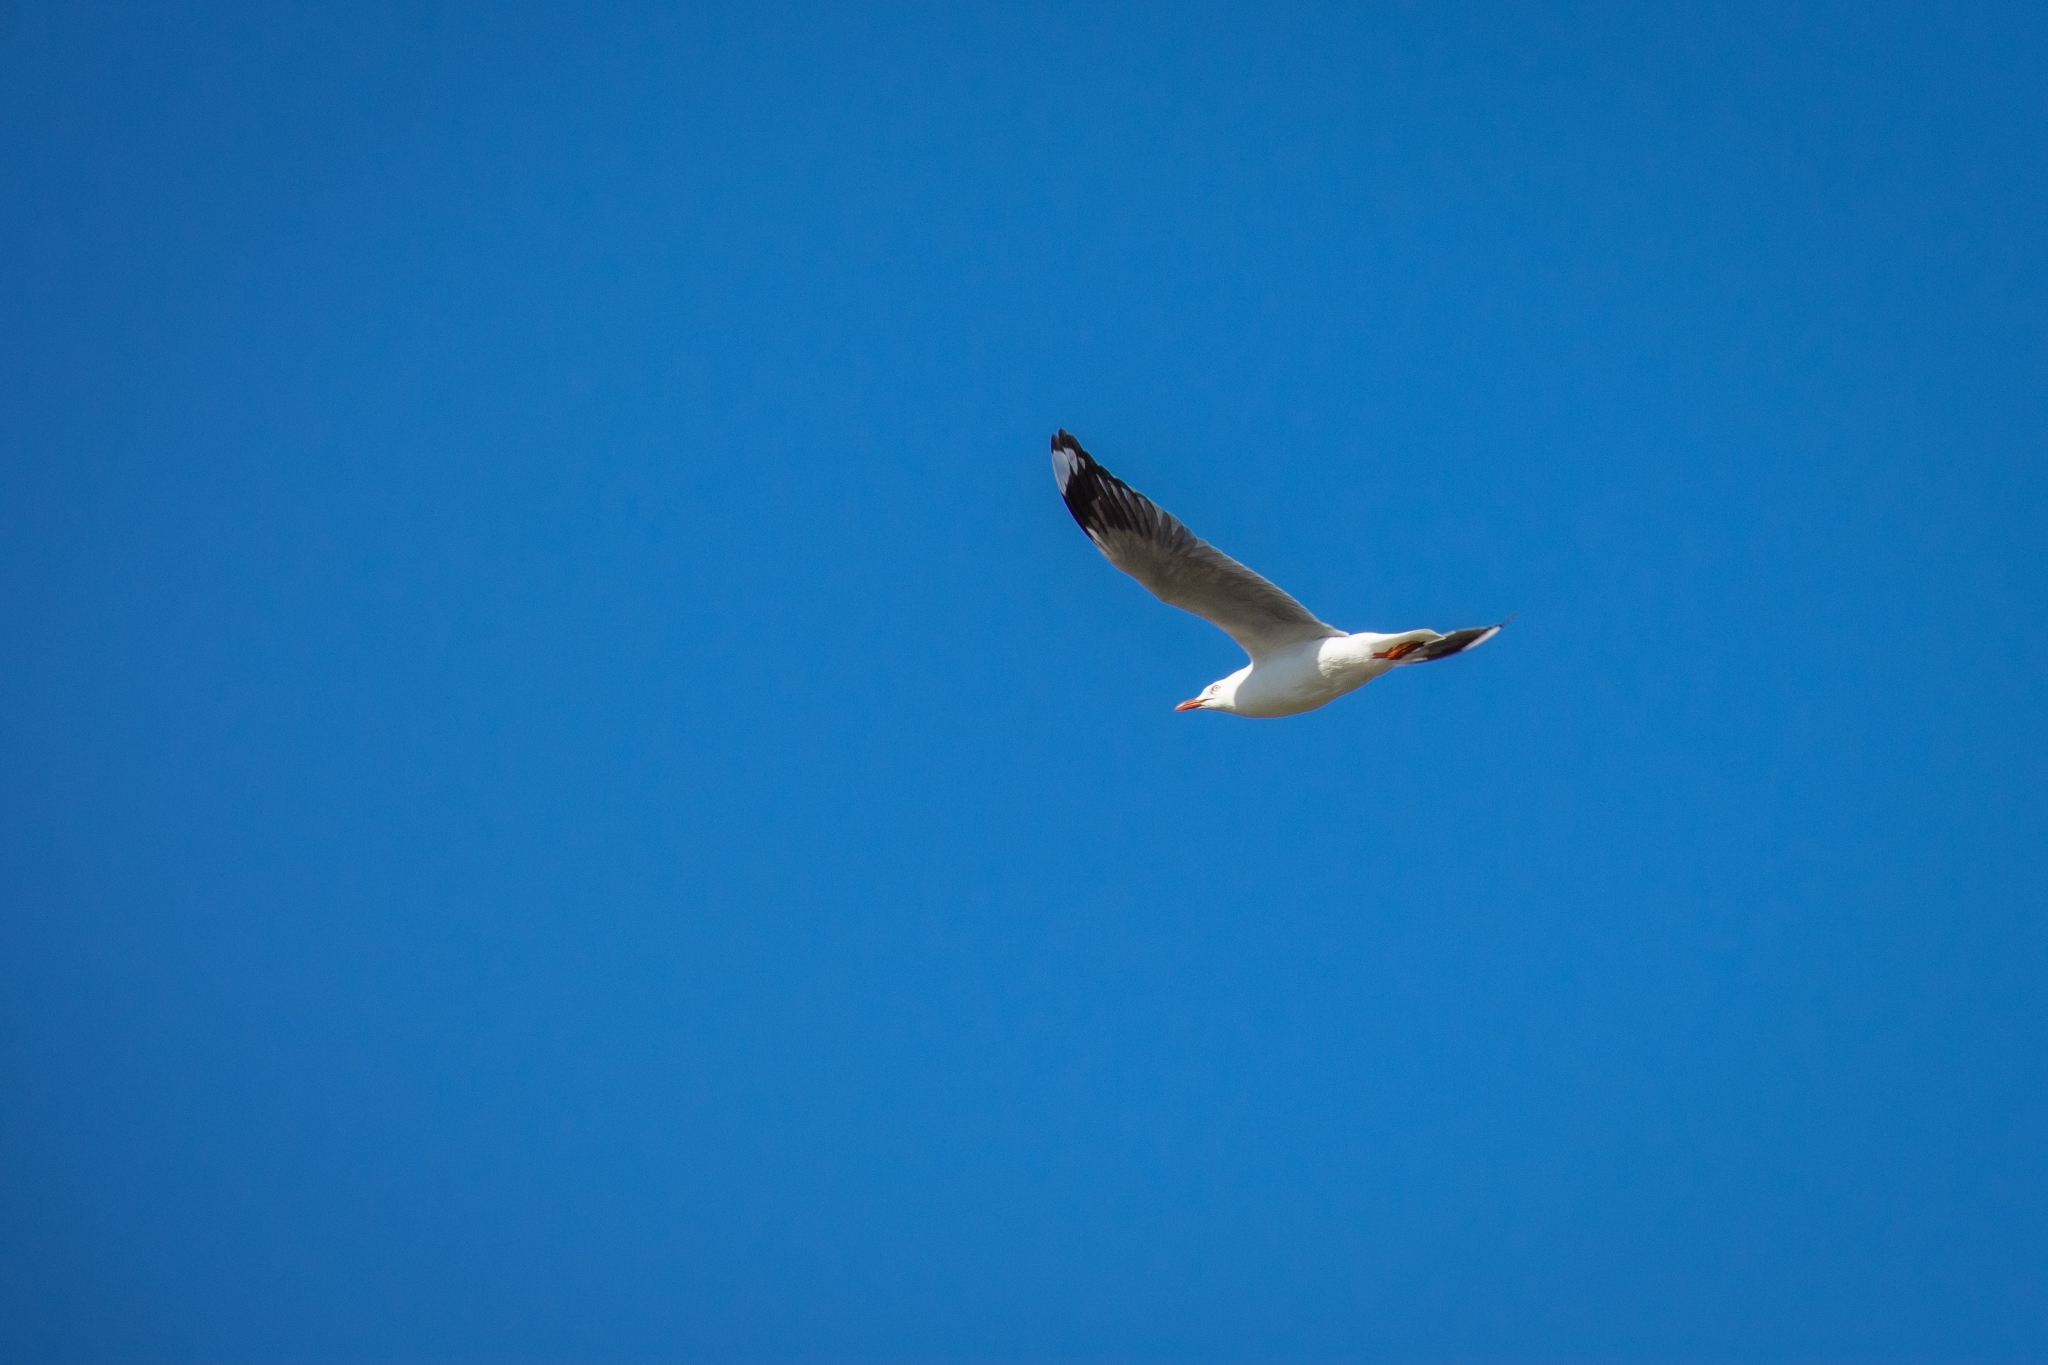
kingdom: Animalia
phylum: Chordata
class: Aves
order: Charadriiformes
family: Laridae
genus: Chroicocephalus
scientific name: Chroicocephalus novaehollandiae
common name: Silver gull
